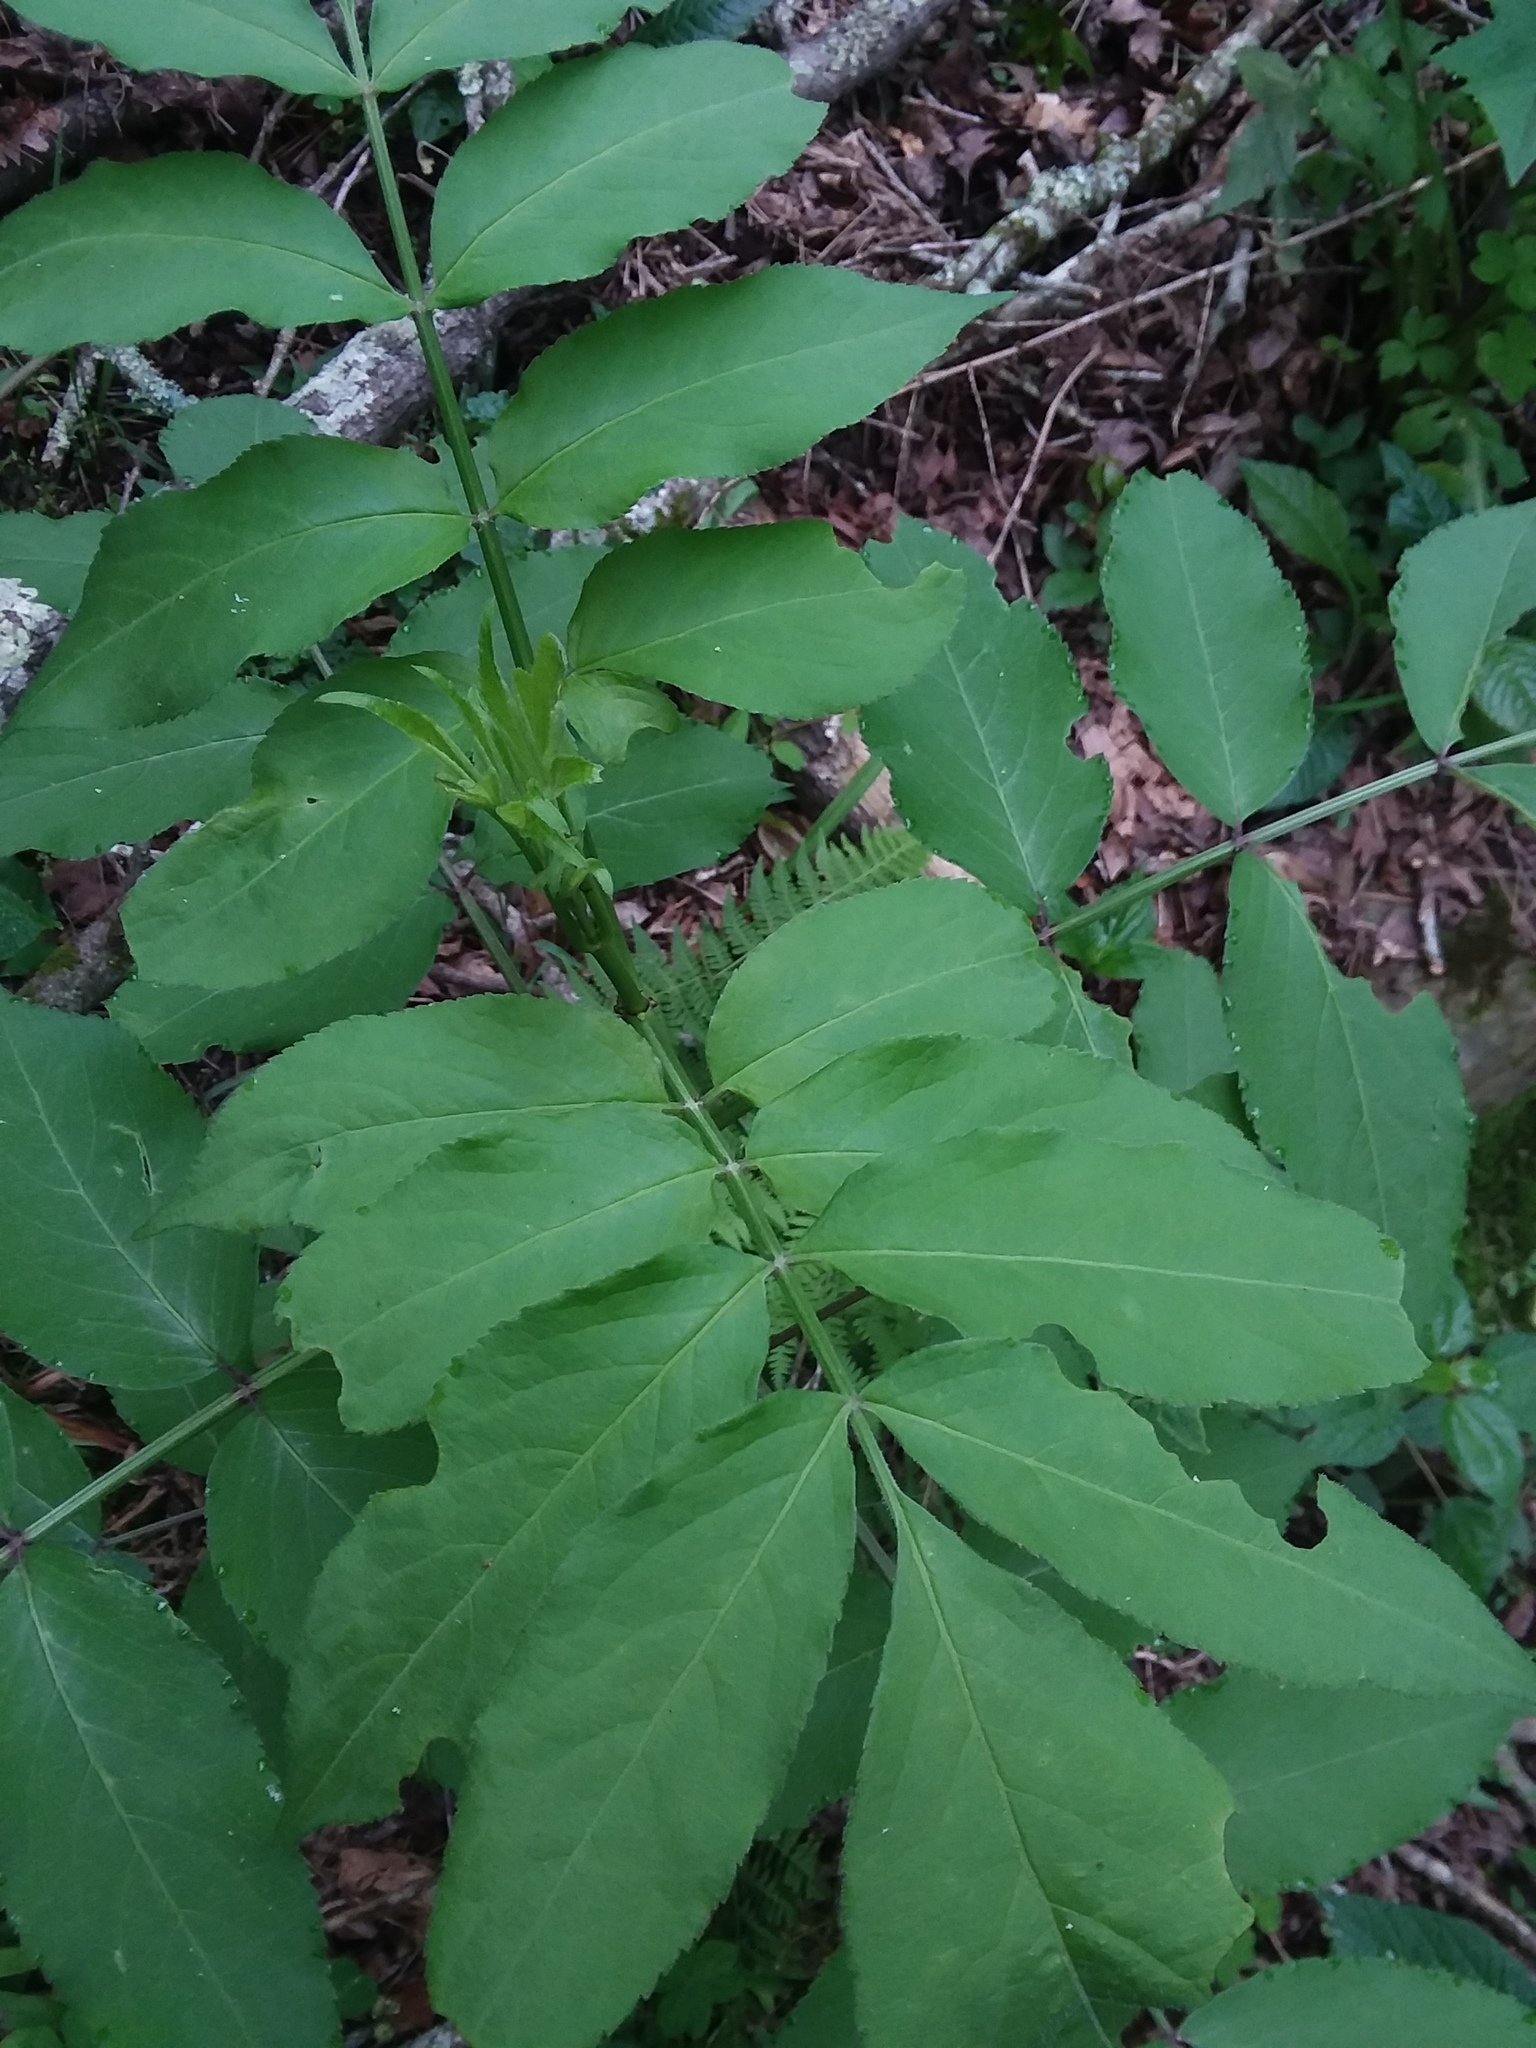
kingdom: Plantae
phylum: Tracheophyta
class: Magnoliopsida
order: Dipsacales
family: Viburnaceae
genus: Sambucus
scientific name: Sambucus canadensis
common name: American elder
